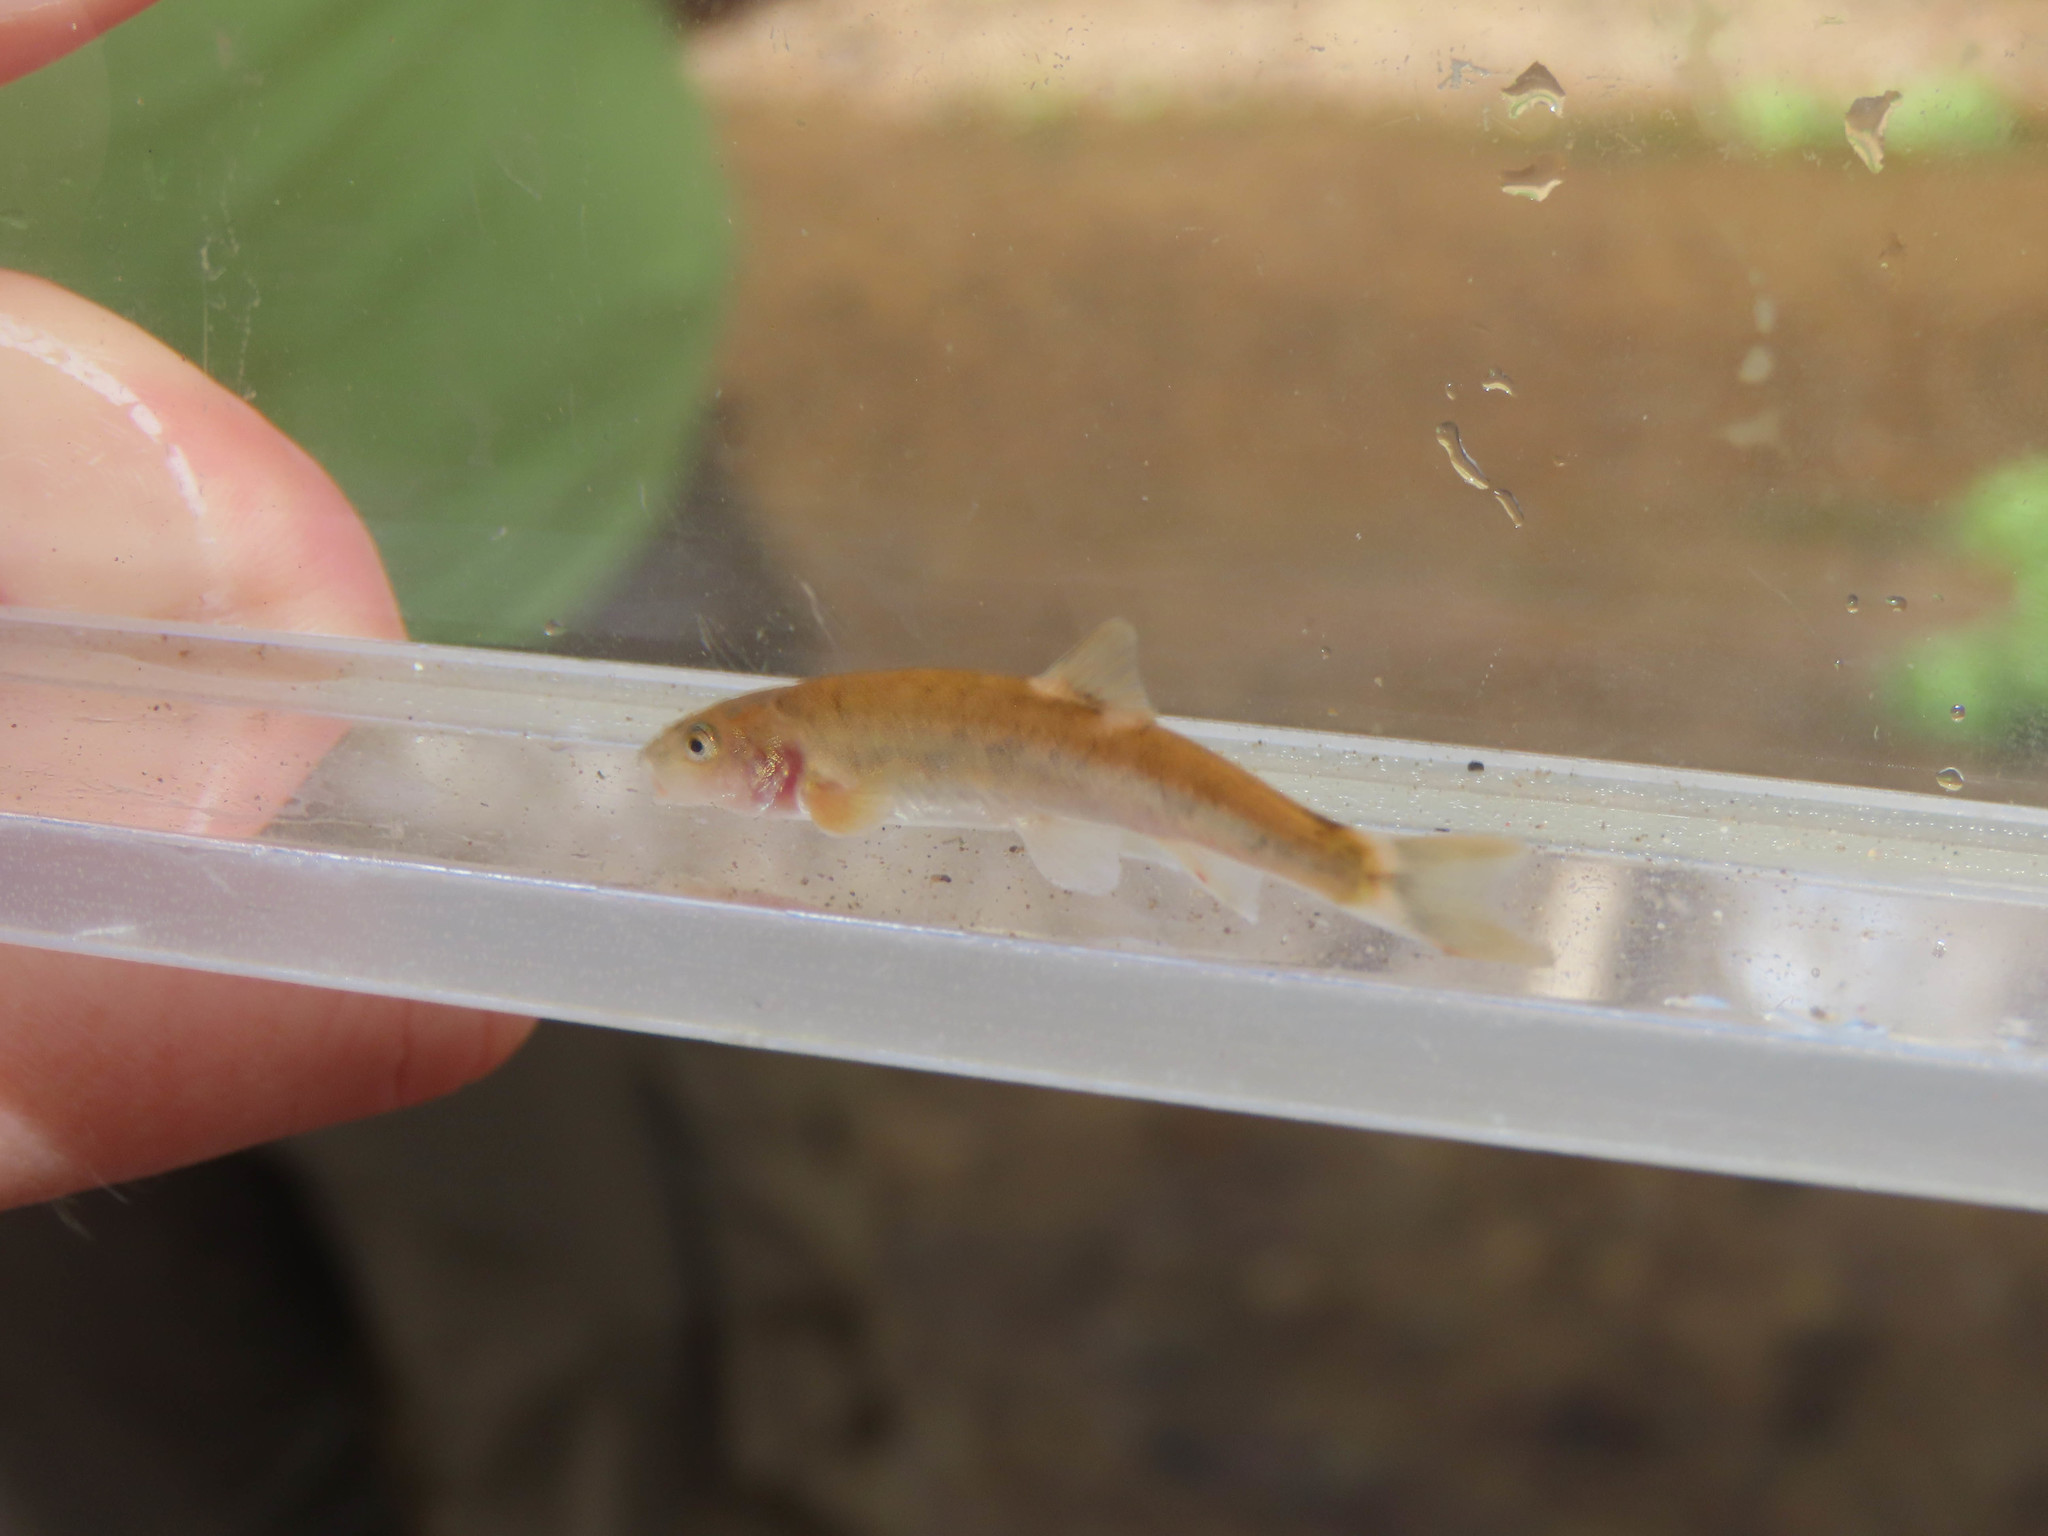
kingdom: Animalia
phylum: Chordata
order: Cypriniformes
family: Cyprinidae
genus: Rhinichthys
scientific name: Rhinichthys cobitis
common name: Loach minnow
